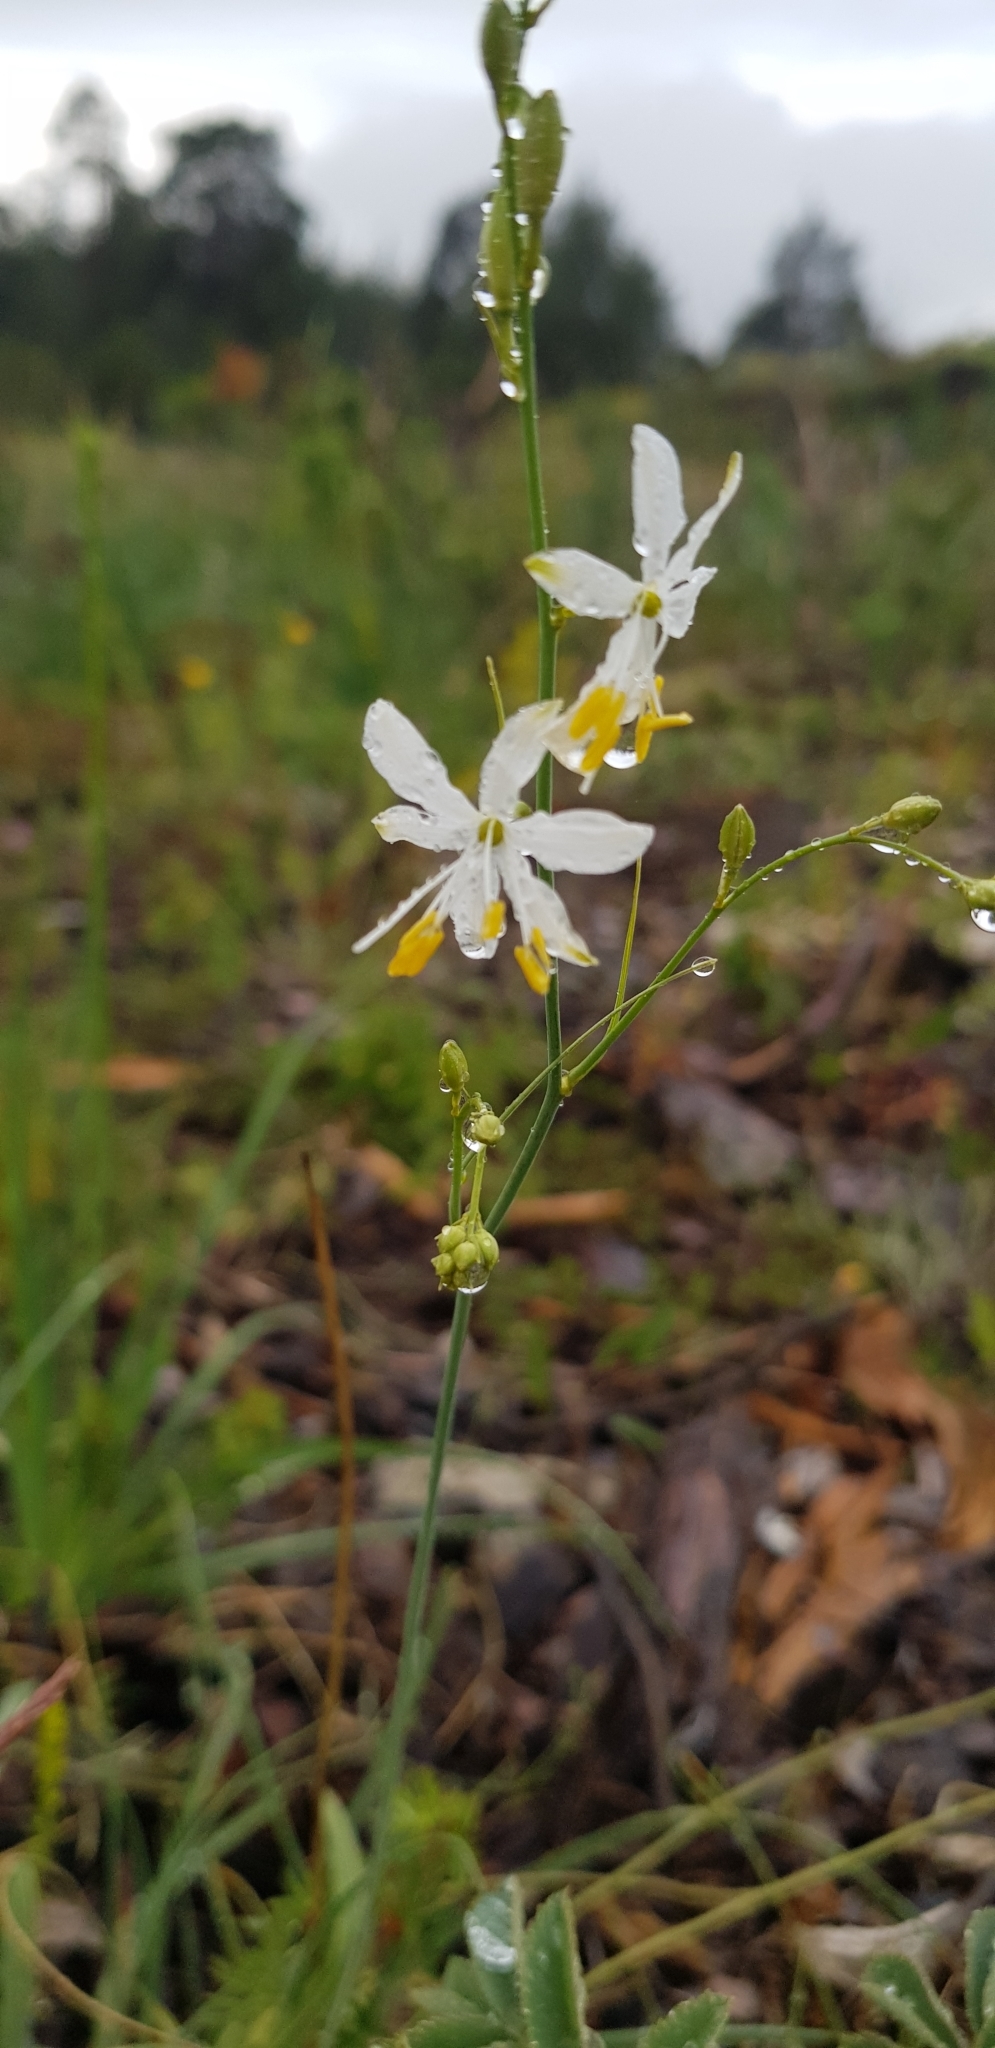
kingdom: Plantae
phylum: Tracheophyta
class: Liliopsida
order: Asparagales
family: Asparagaceae
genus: Anthericum
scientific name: Anthericum ramosum
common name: Branched st. bernard's-lily
